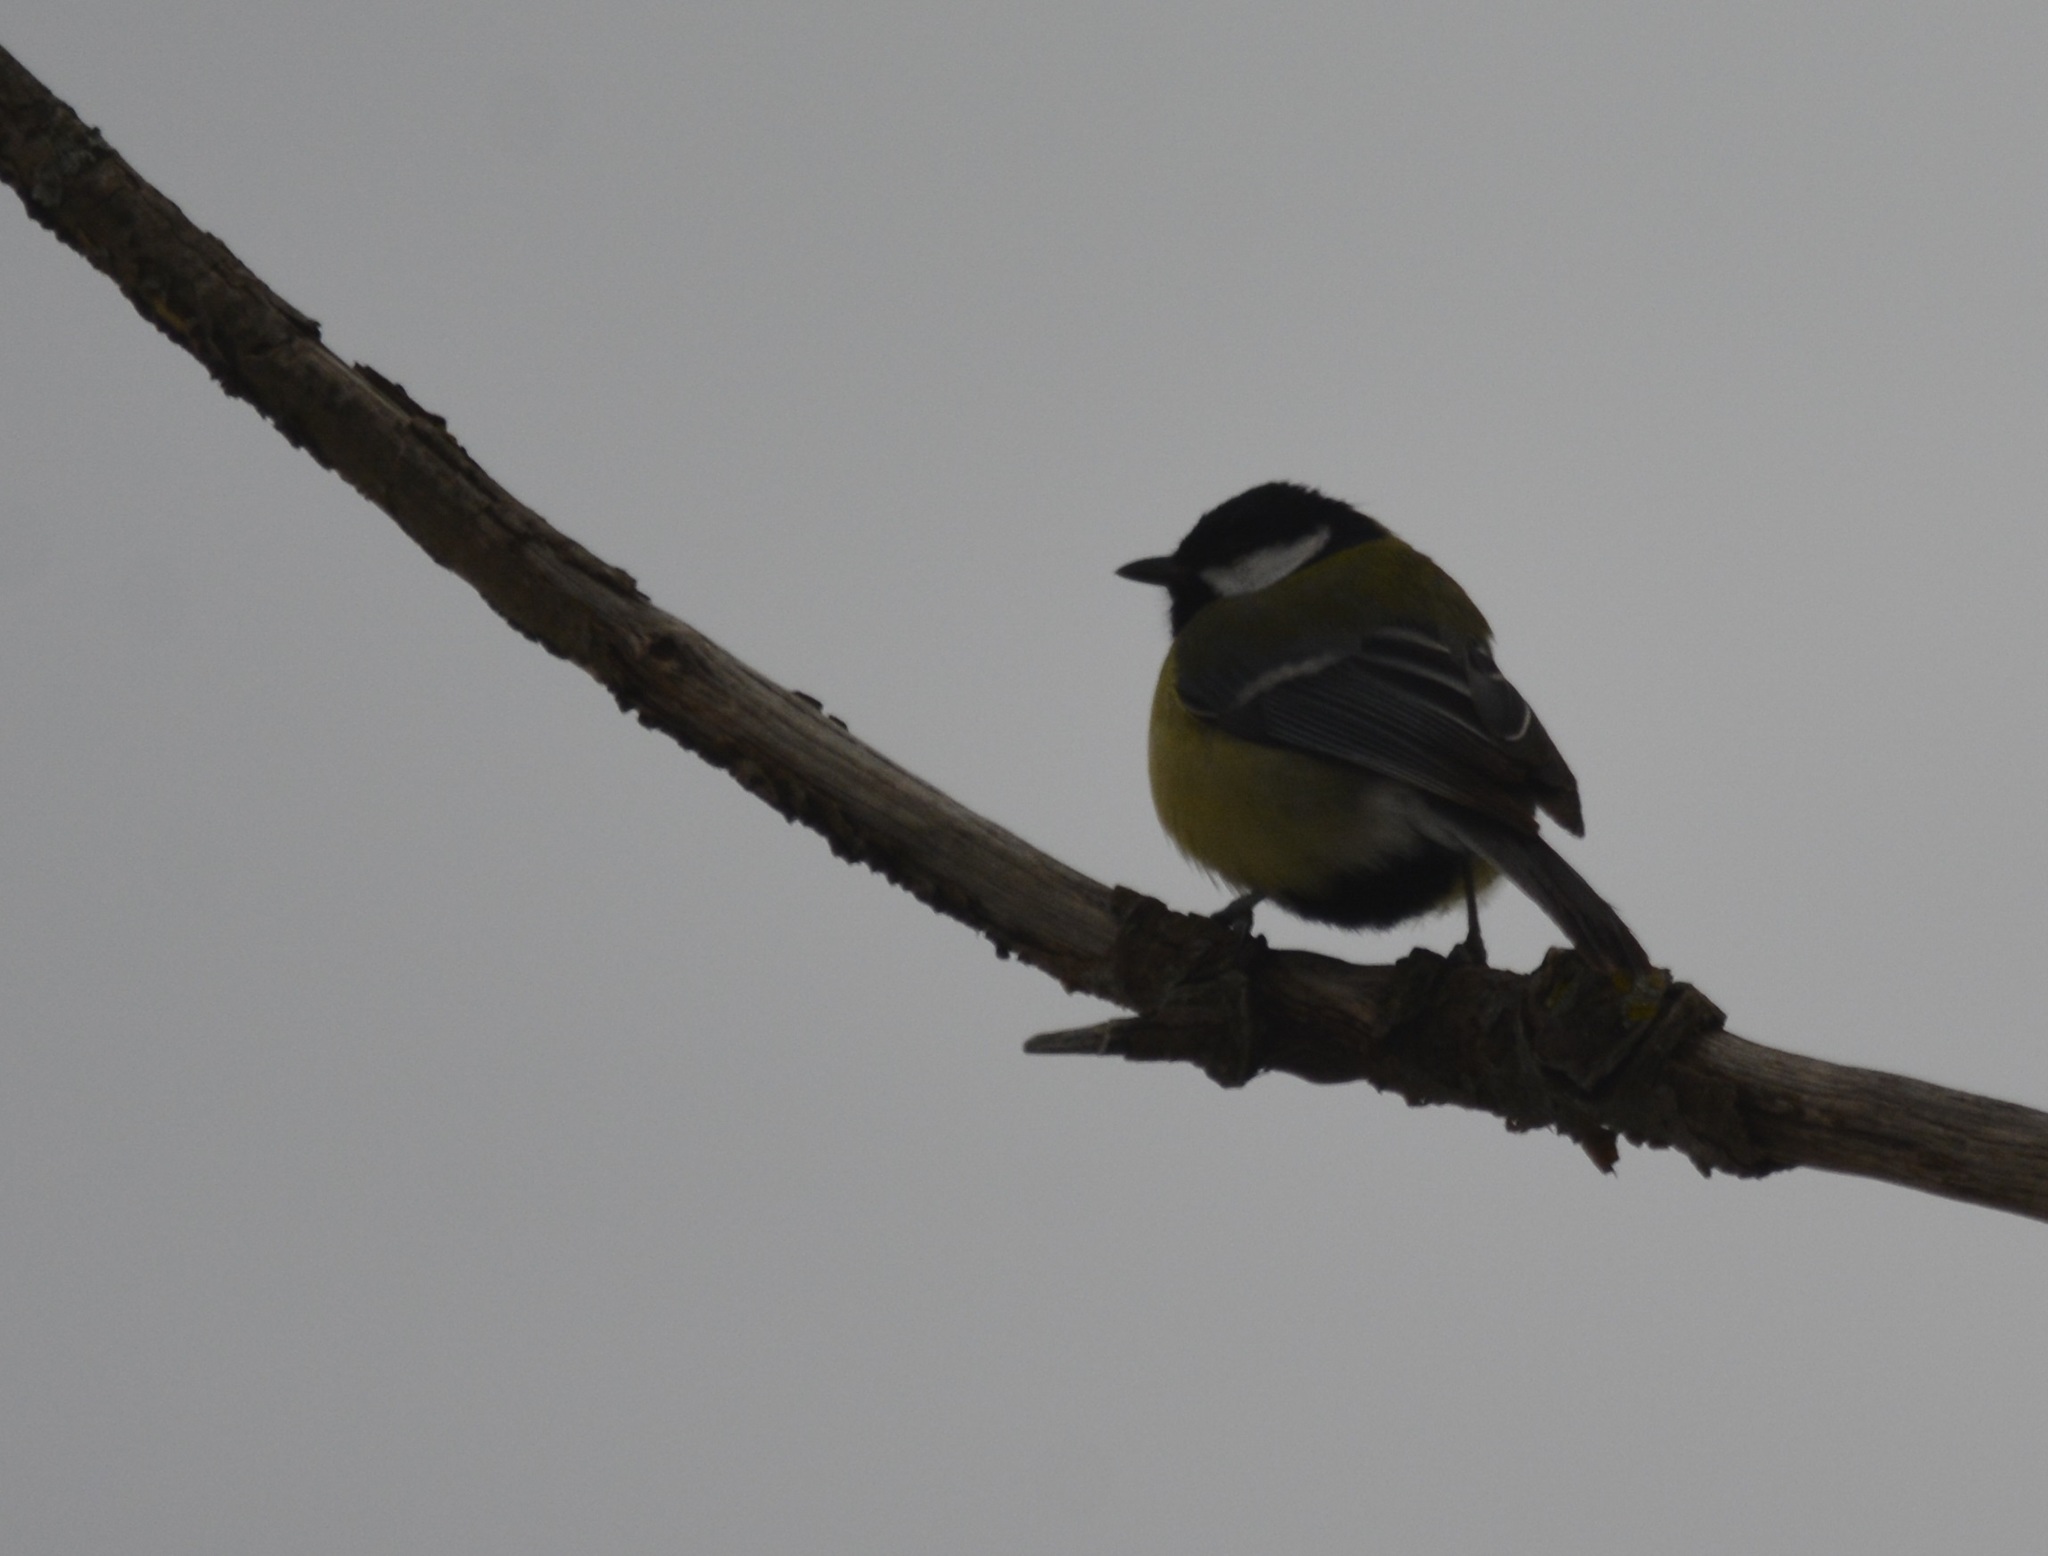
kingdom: Animalia
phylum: Chordata
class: Aves
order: Passeriformes
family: Paridae
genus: Parus
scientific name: Parus major
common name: Great tit
